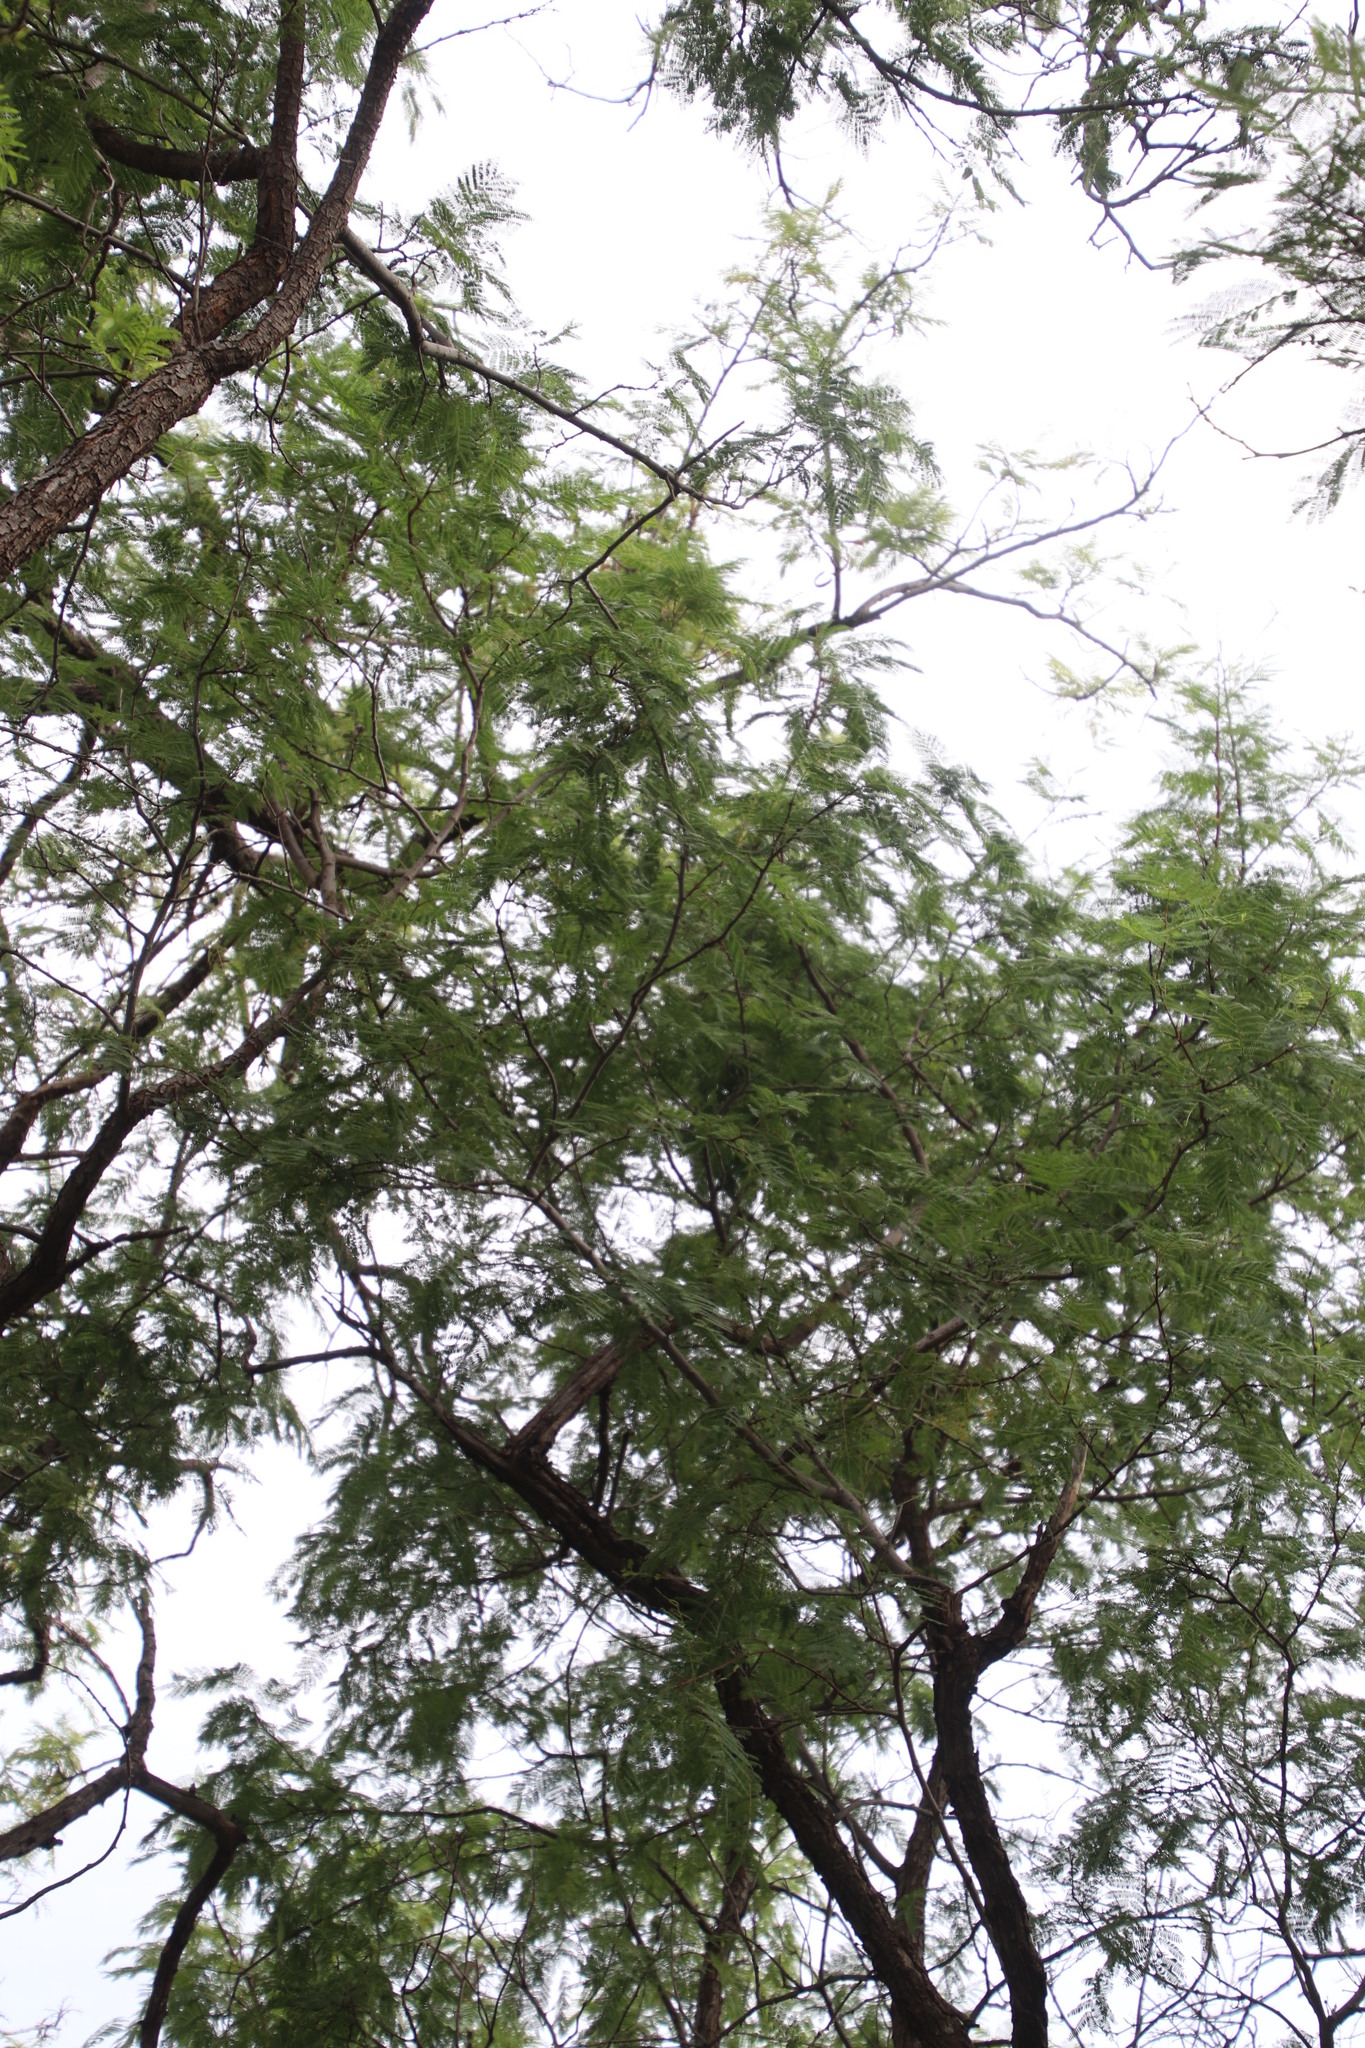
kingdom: Plantae
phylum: Tracheophyta
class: Magnoliopsida
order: Fabales
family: Fabaceae
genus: Senegalia
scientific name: Senegalia caffra
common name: Cat thorn
